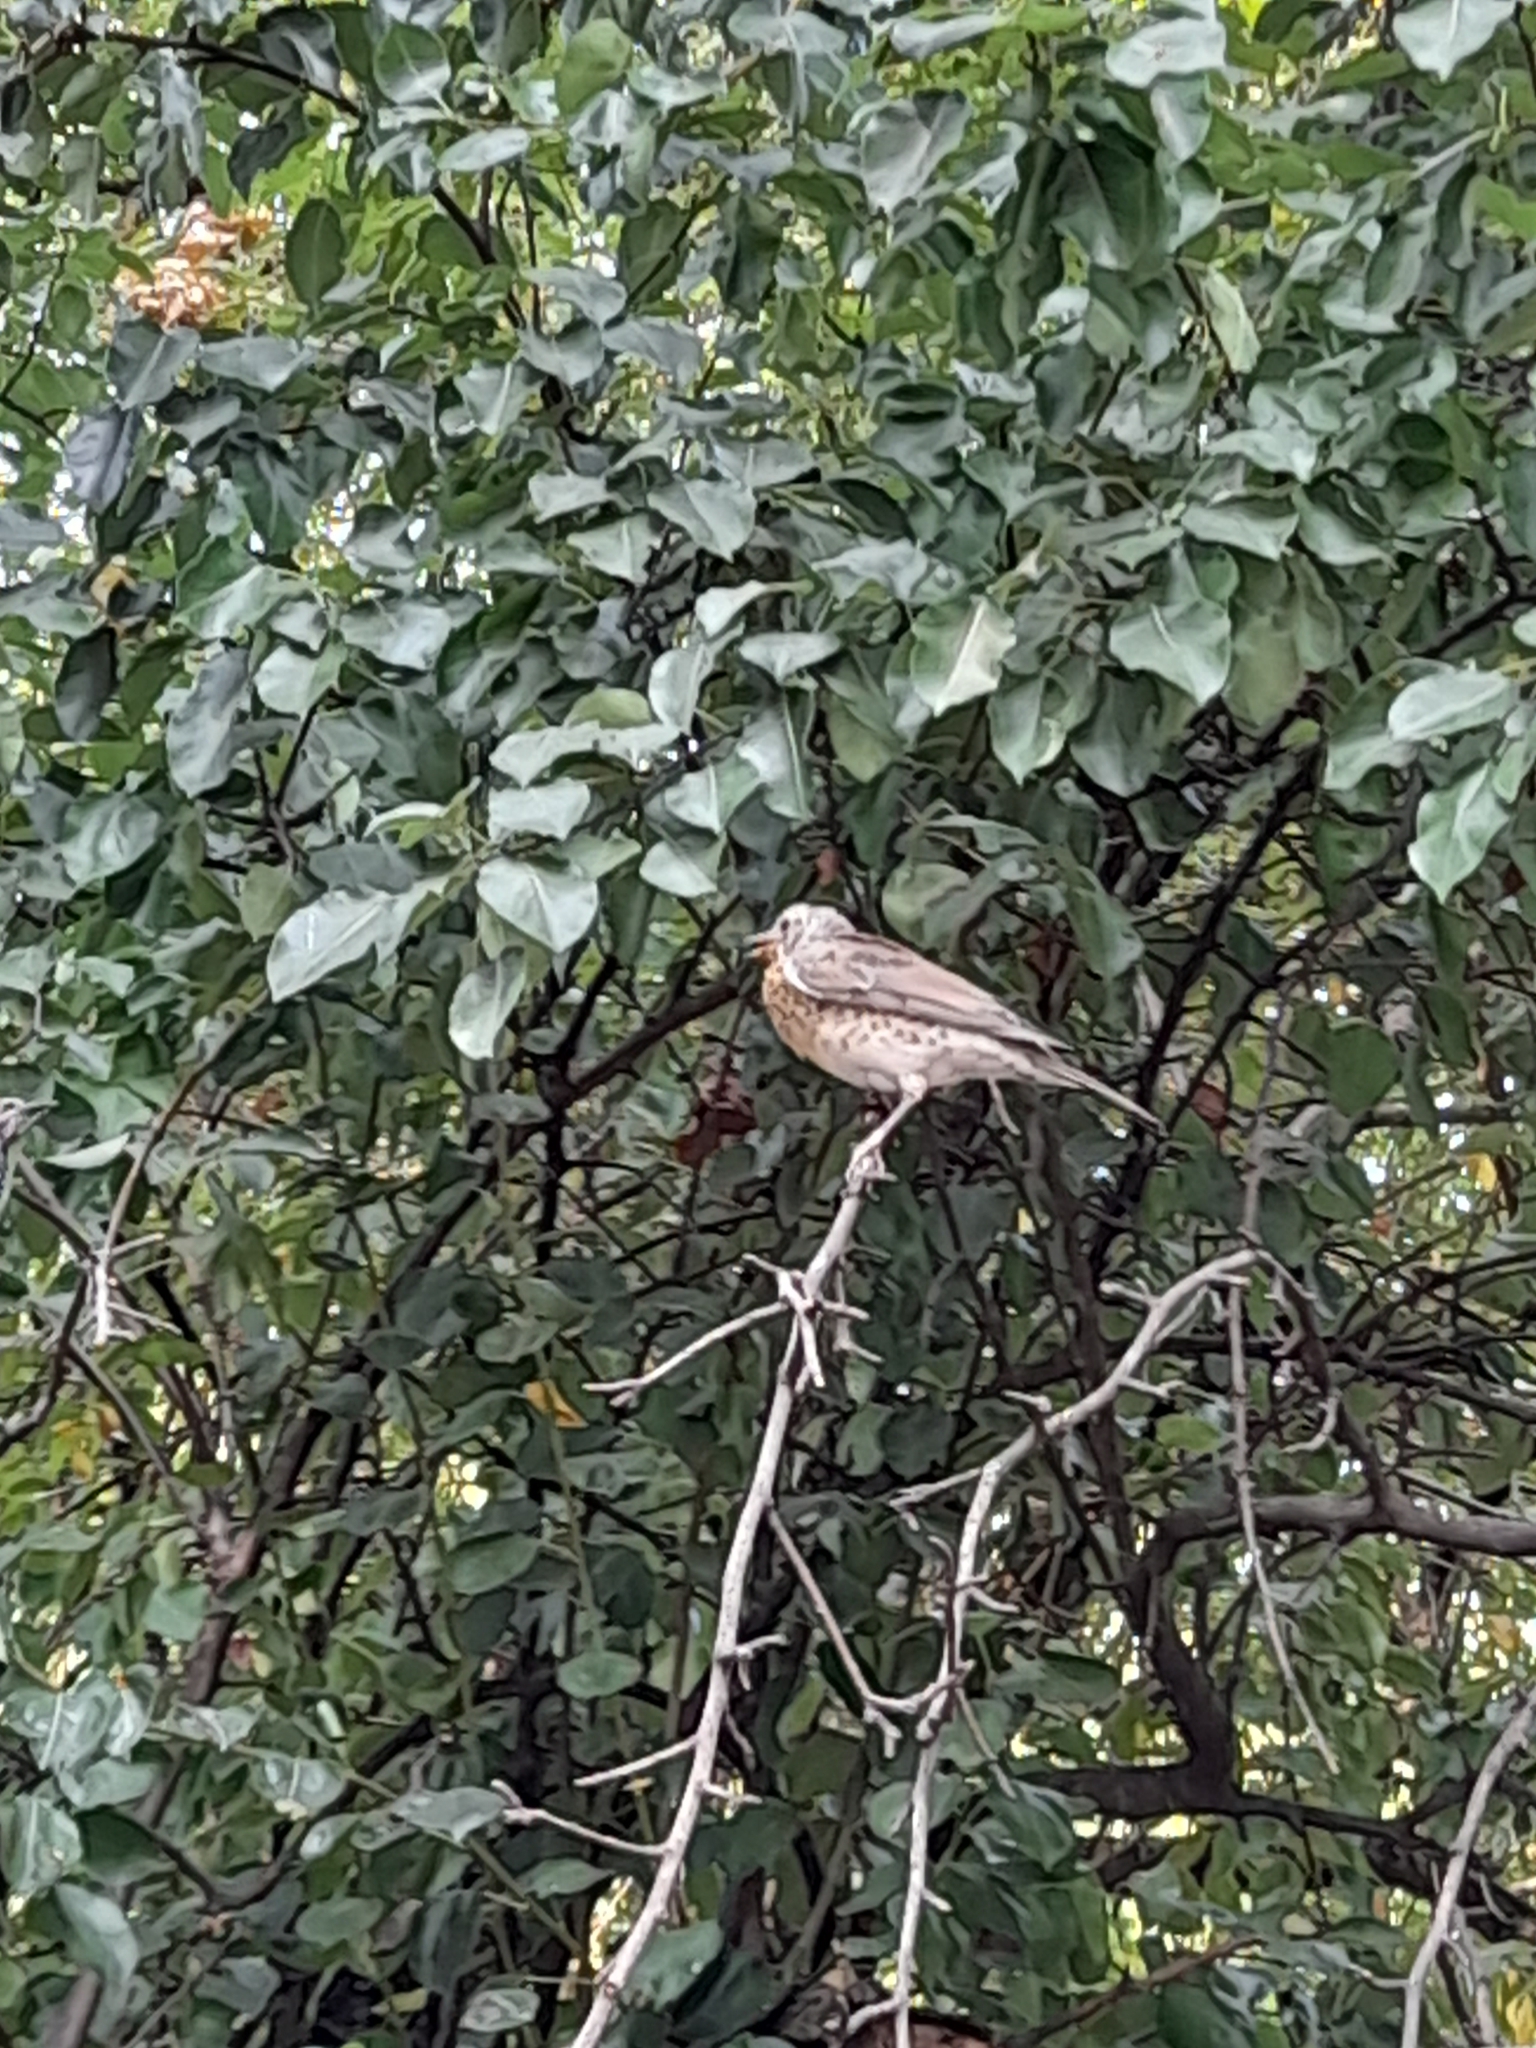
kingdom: Animalia
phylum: Chordata
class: Aves
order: Passeriformes
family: Turdidae
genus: Turdus
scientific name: Turdus pilaris
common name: Fieldfare
